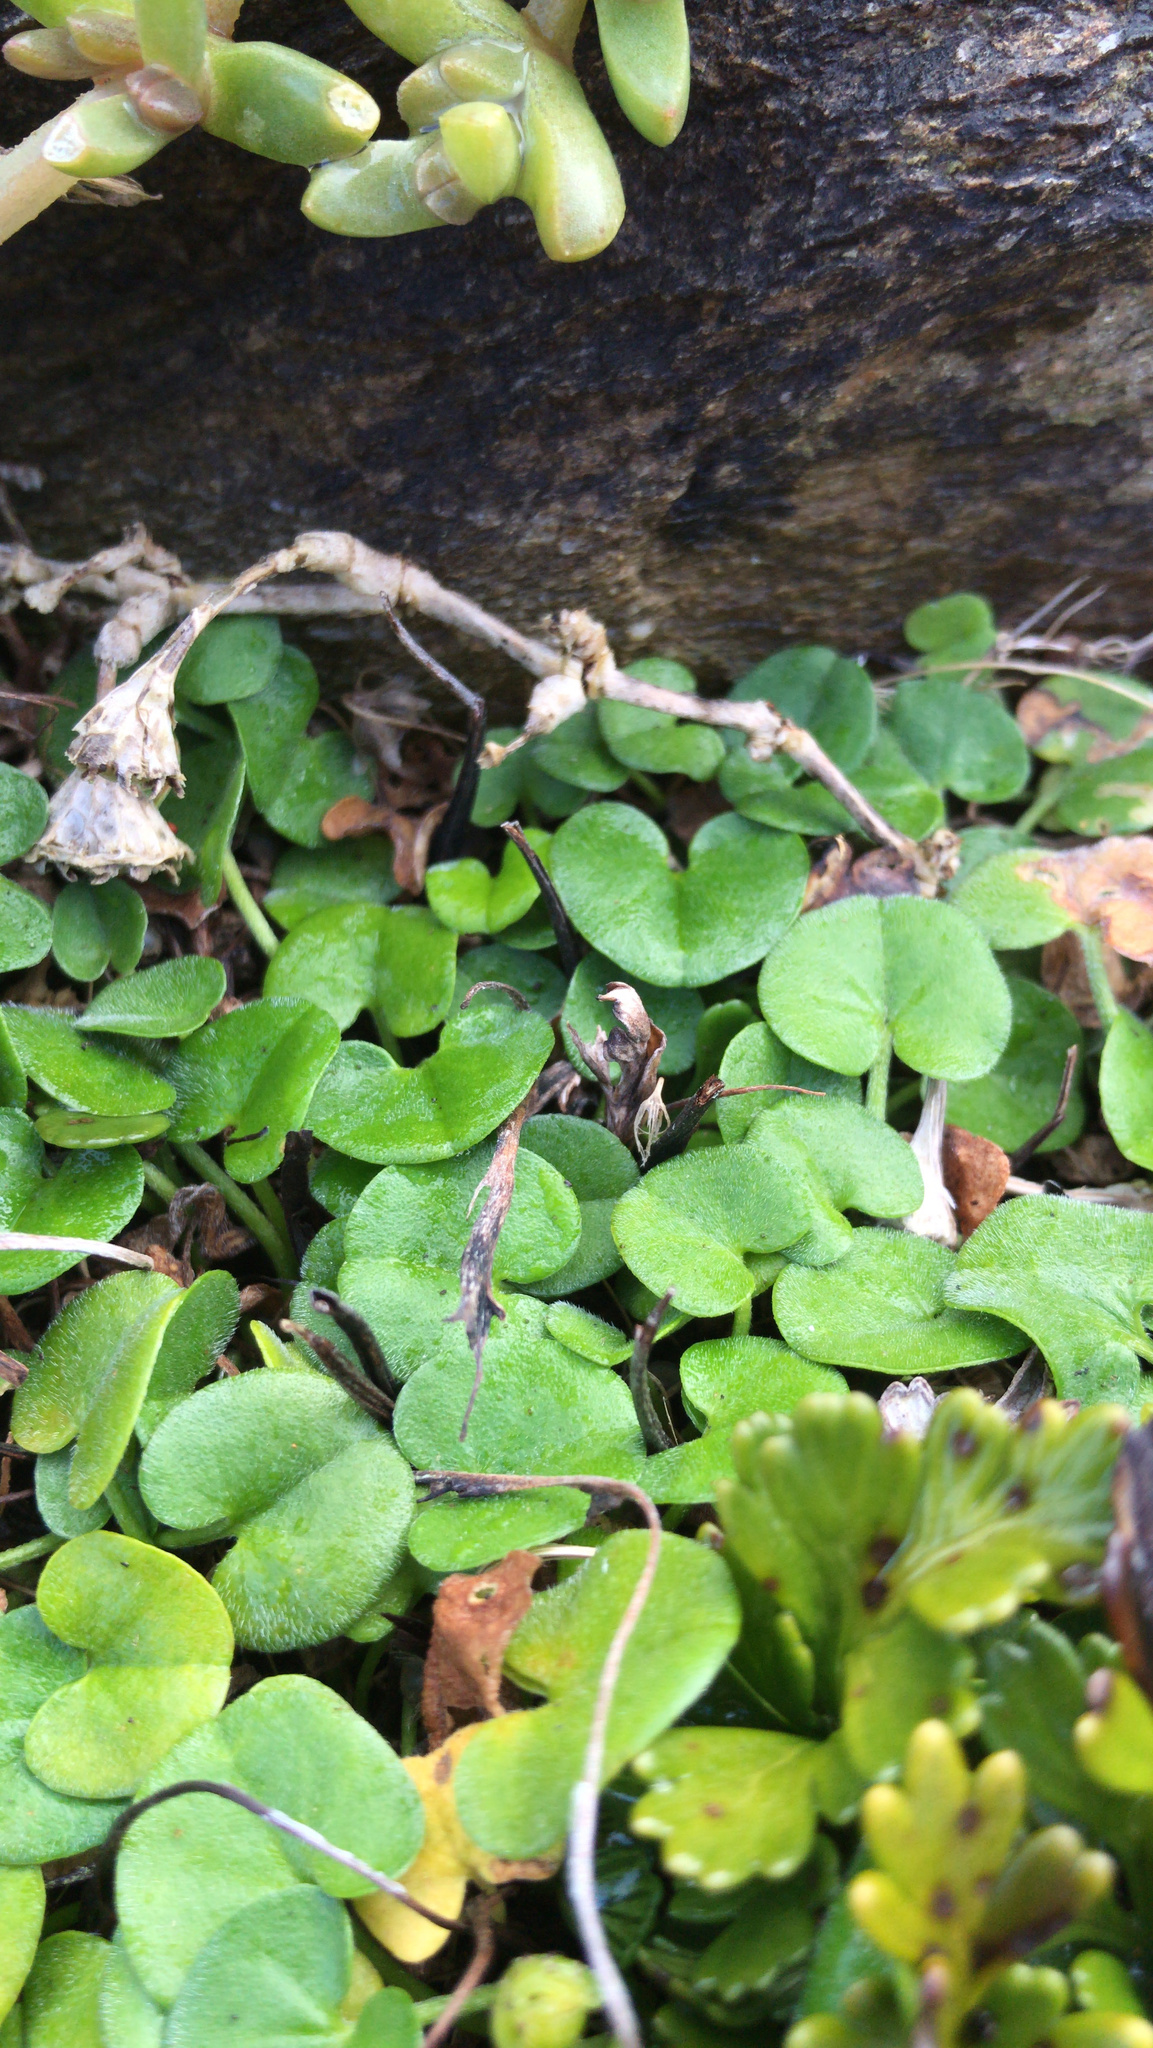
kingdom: Plantae
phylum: Tracheophyta
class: Magnoliopsida
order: Solanales
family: Convolvulaceae
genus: Dichondra
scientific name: Dichondra brevifolia
